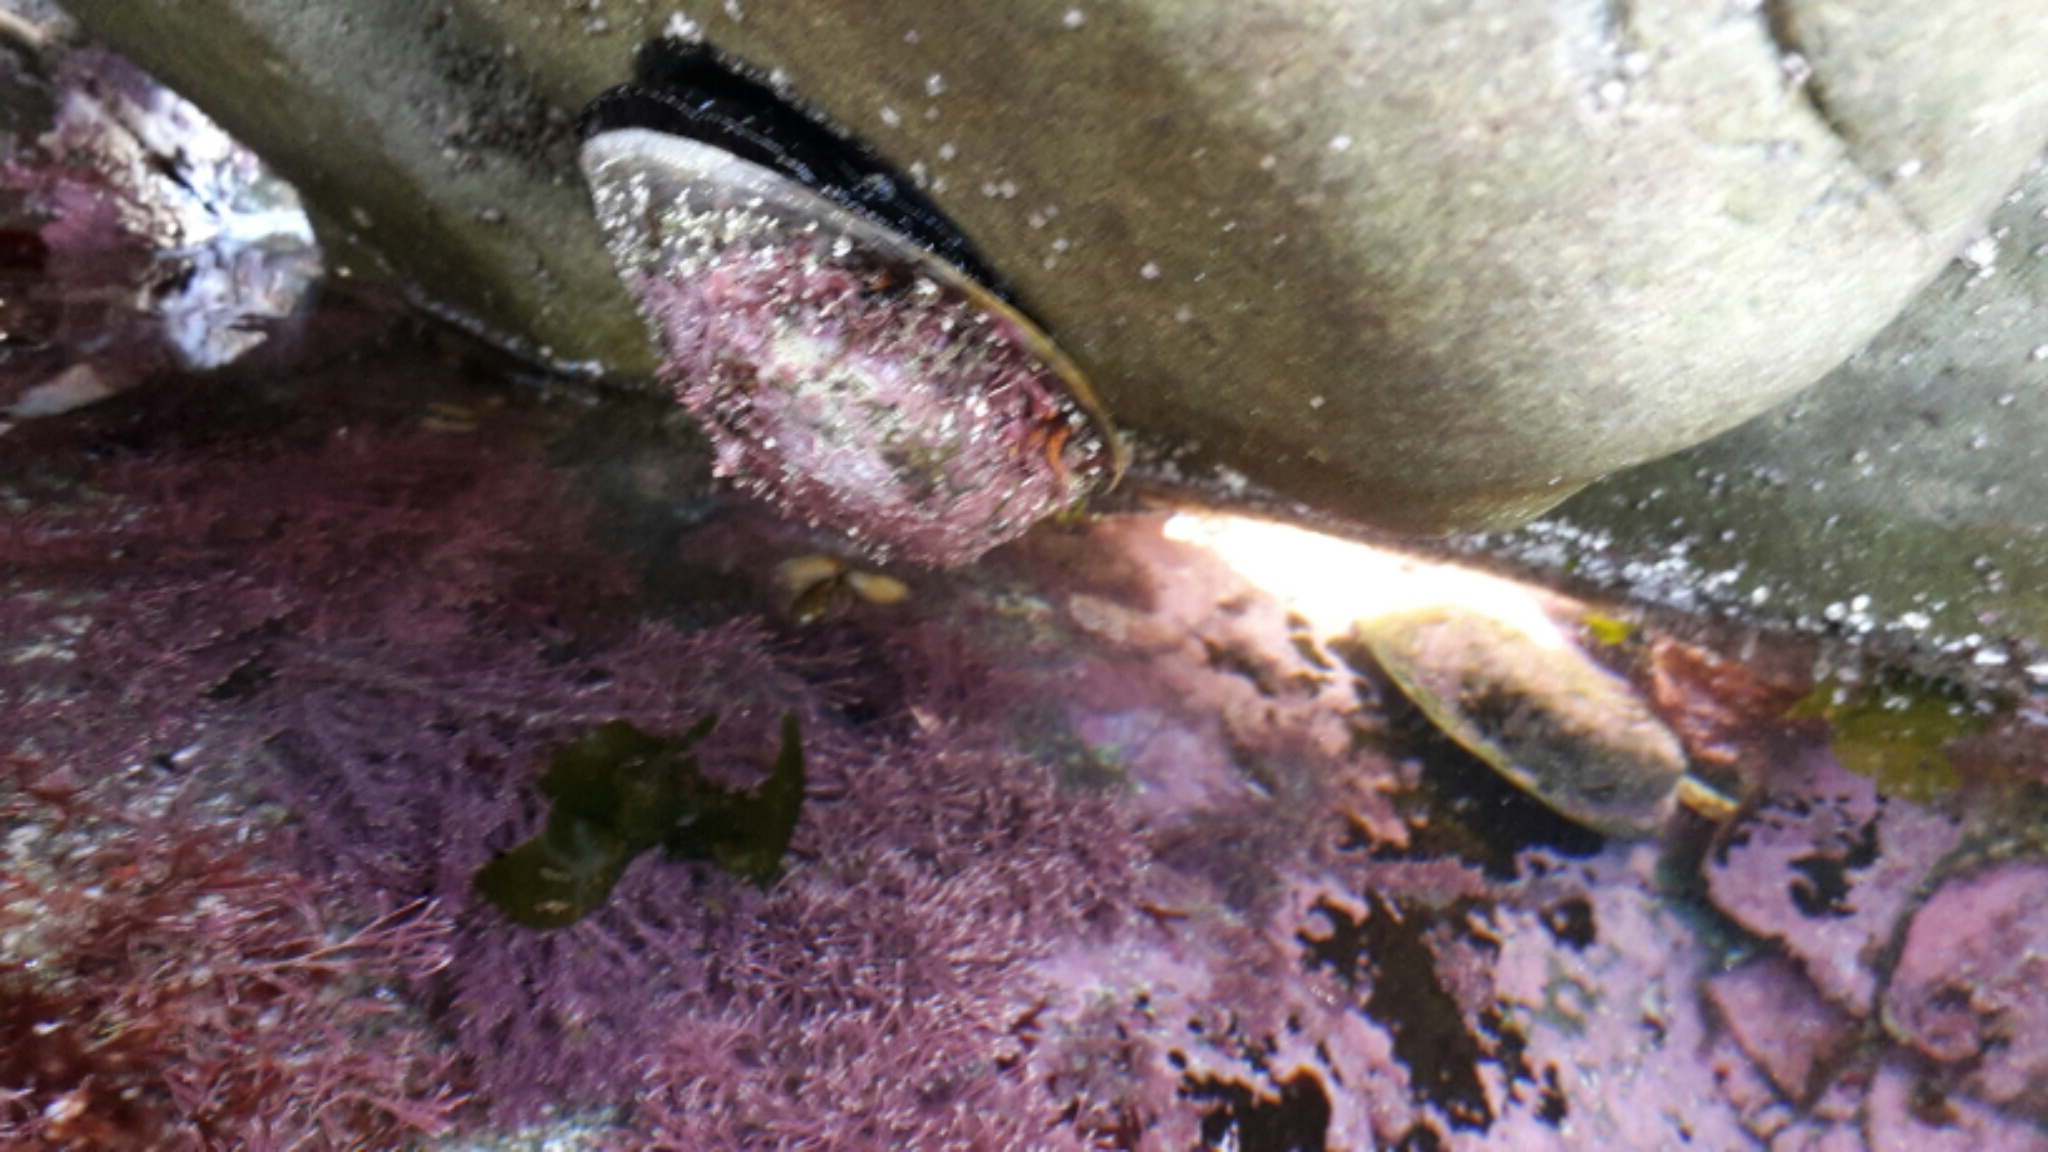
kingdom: Animalia
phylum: Mollusca
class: Gastropoda
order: Lepetellida
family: Haliotidae
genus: Haliotis
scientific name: Haliotis iris
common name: Abalone
